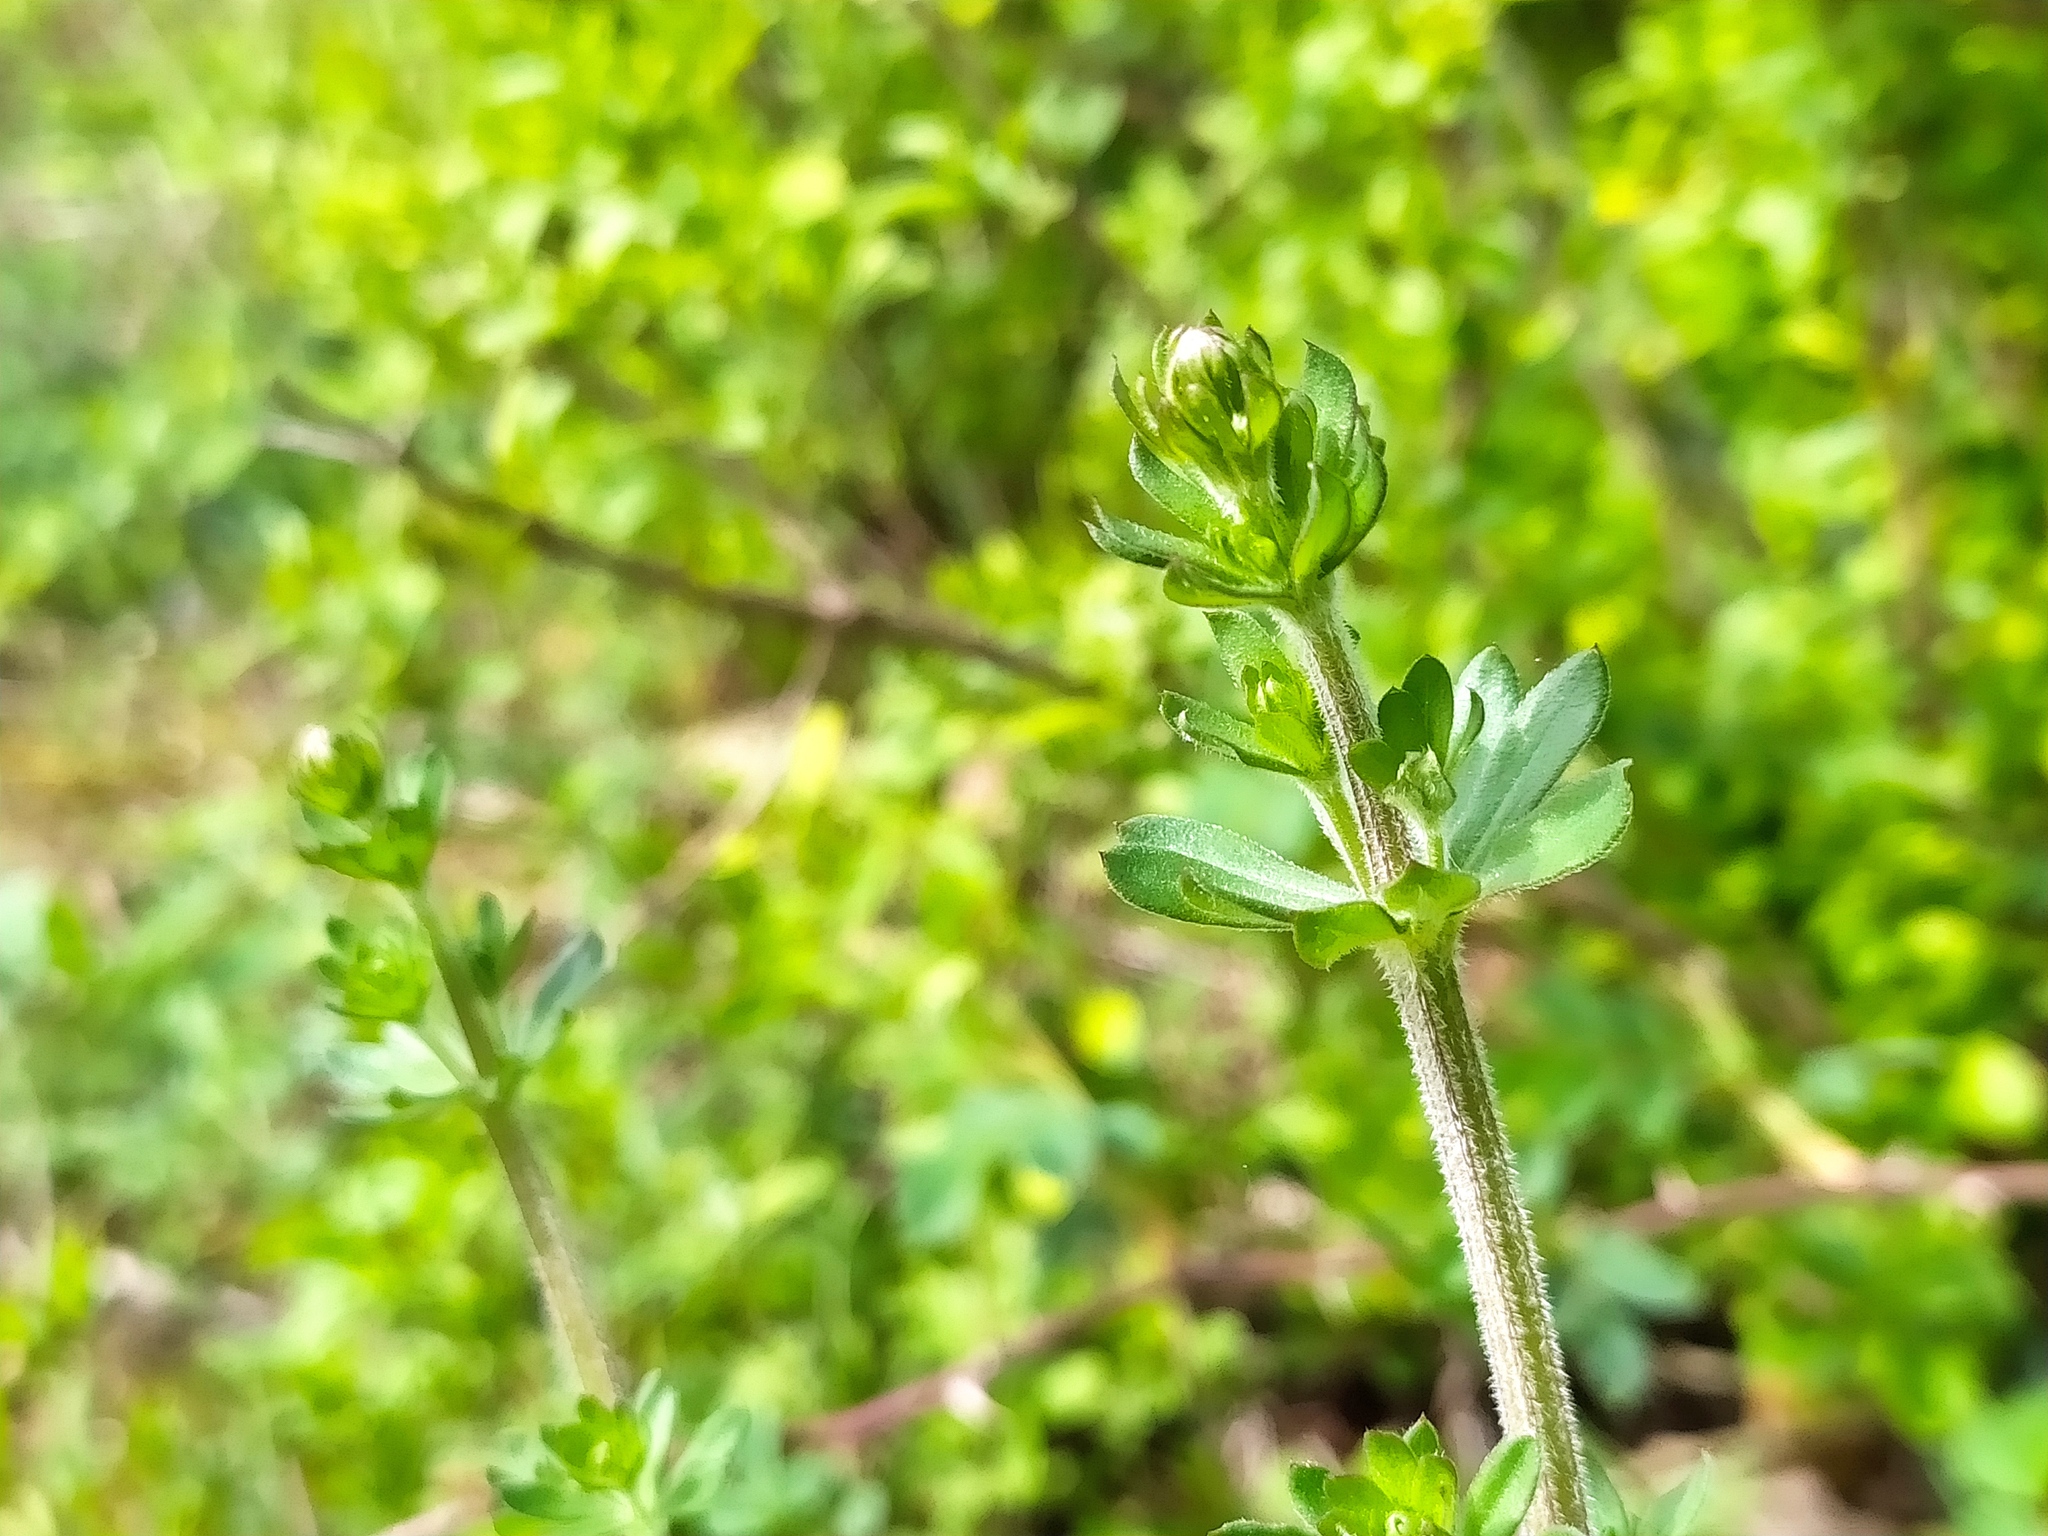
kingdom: Plantae
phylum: Tracheophyta
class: Magnoliopsida
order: Gentianales
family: Rubiaceae
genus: Galium
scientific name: Galium album
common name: White bedstraw
